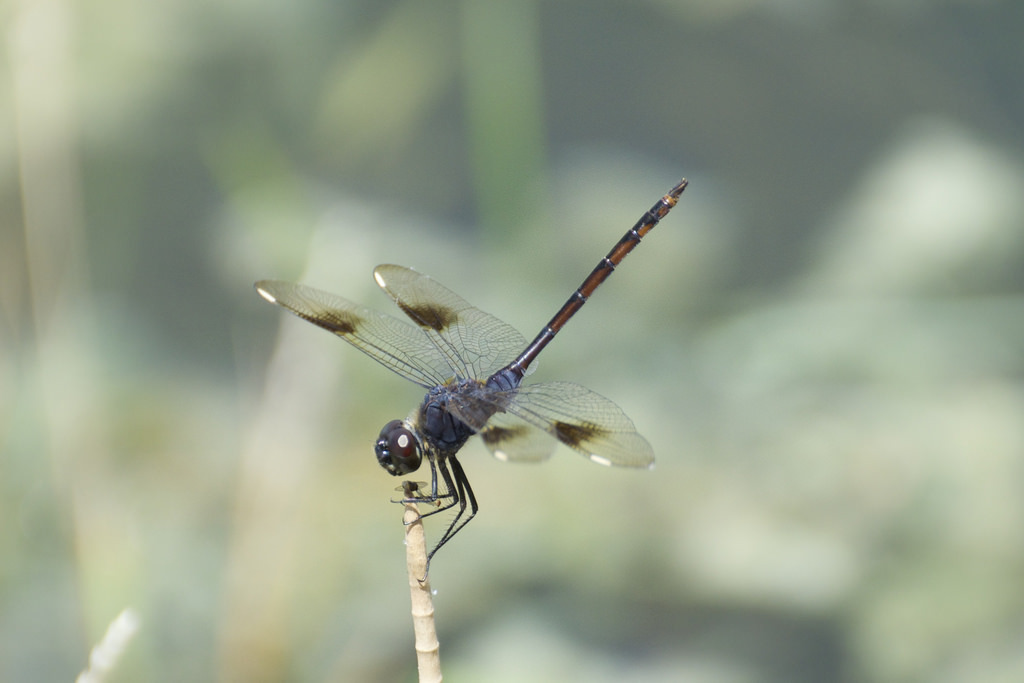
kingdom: Animalia
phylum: Arthropoda
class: Insecta
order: Odonata
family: Libellulidae
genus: Brachymesia
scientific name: Brachymesia gravida
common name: Four-spotted pennant
